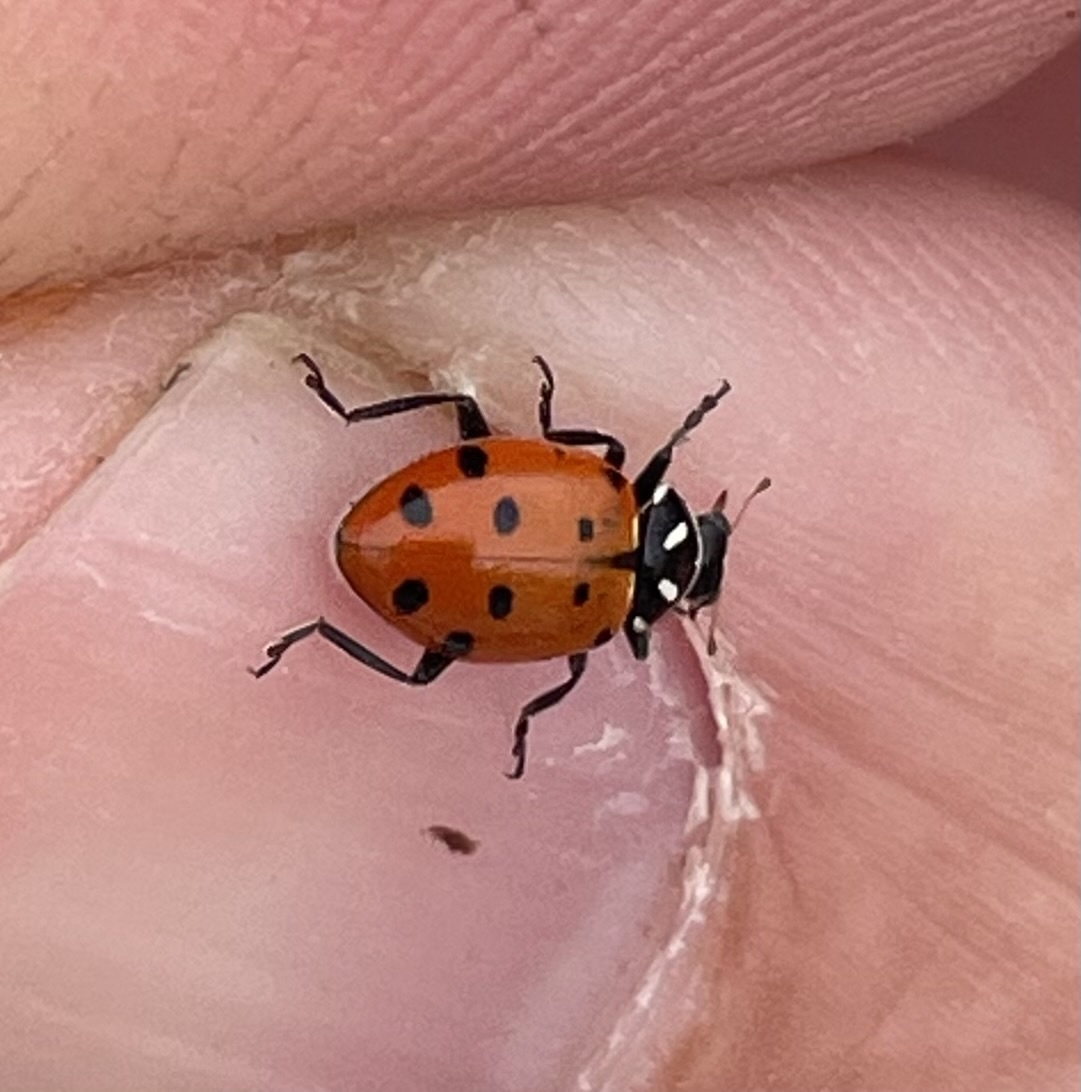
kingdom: Animalia
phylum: Arthropoda
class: Insecta
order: Coleoptera
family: Coccinellidae
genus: Hippodamia
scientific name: Hippodamia convergens
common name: Convergent lady beetle
